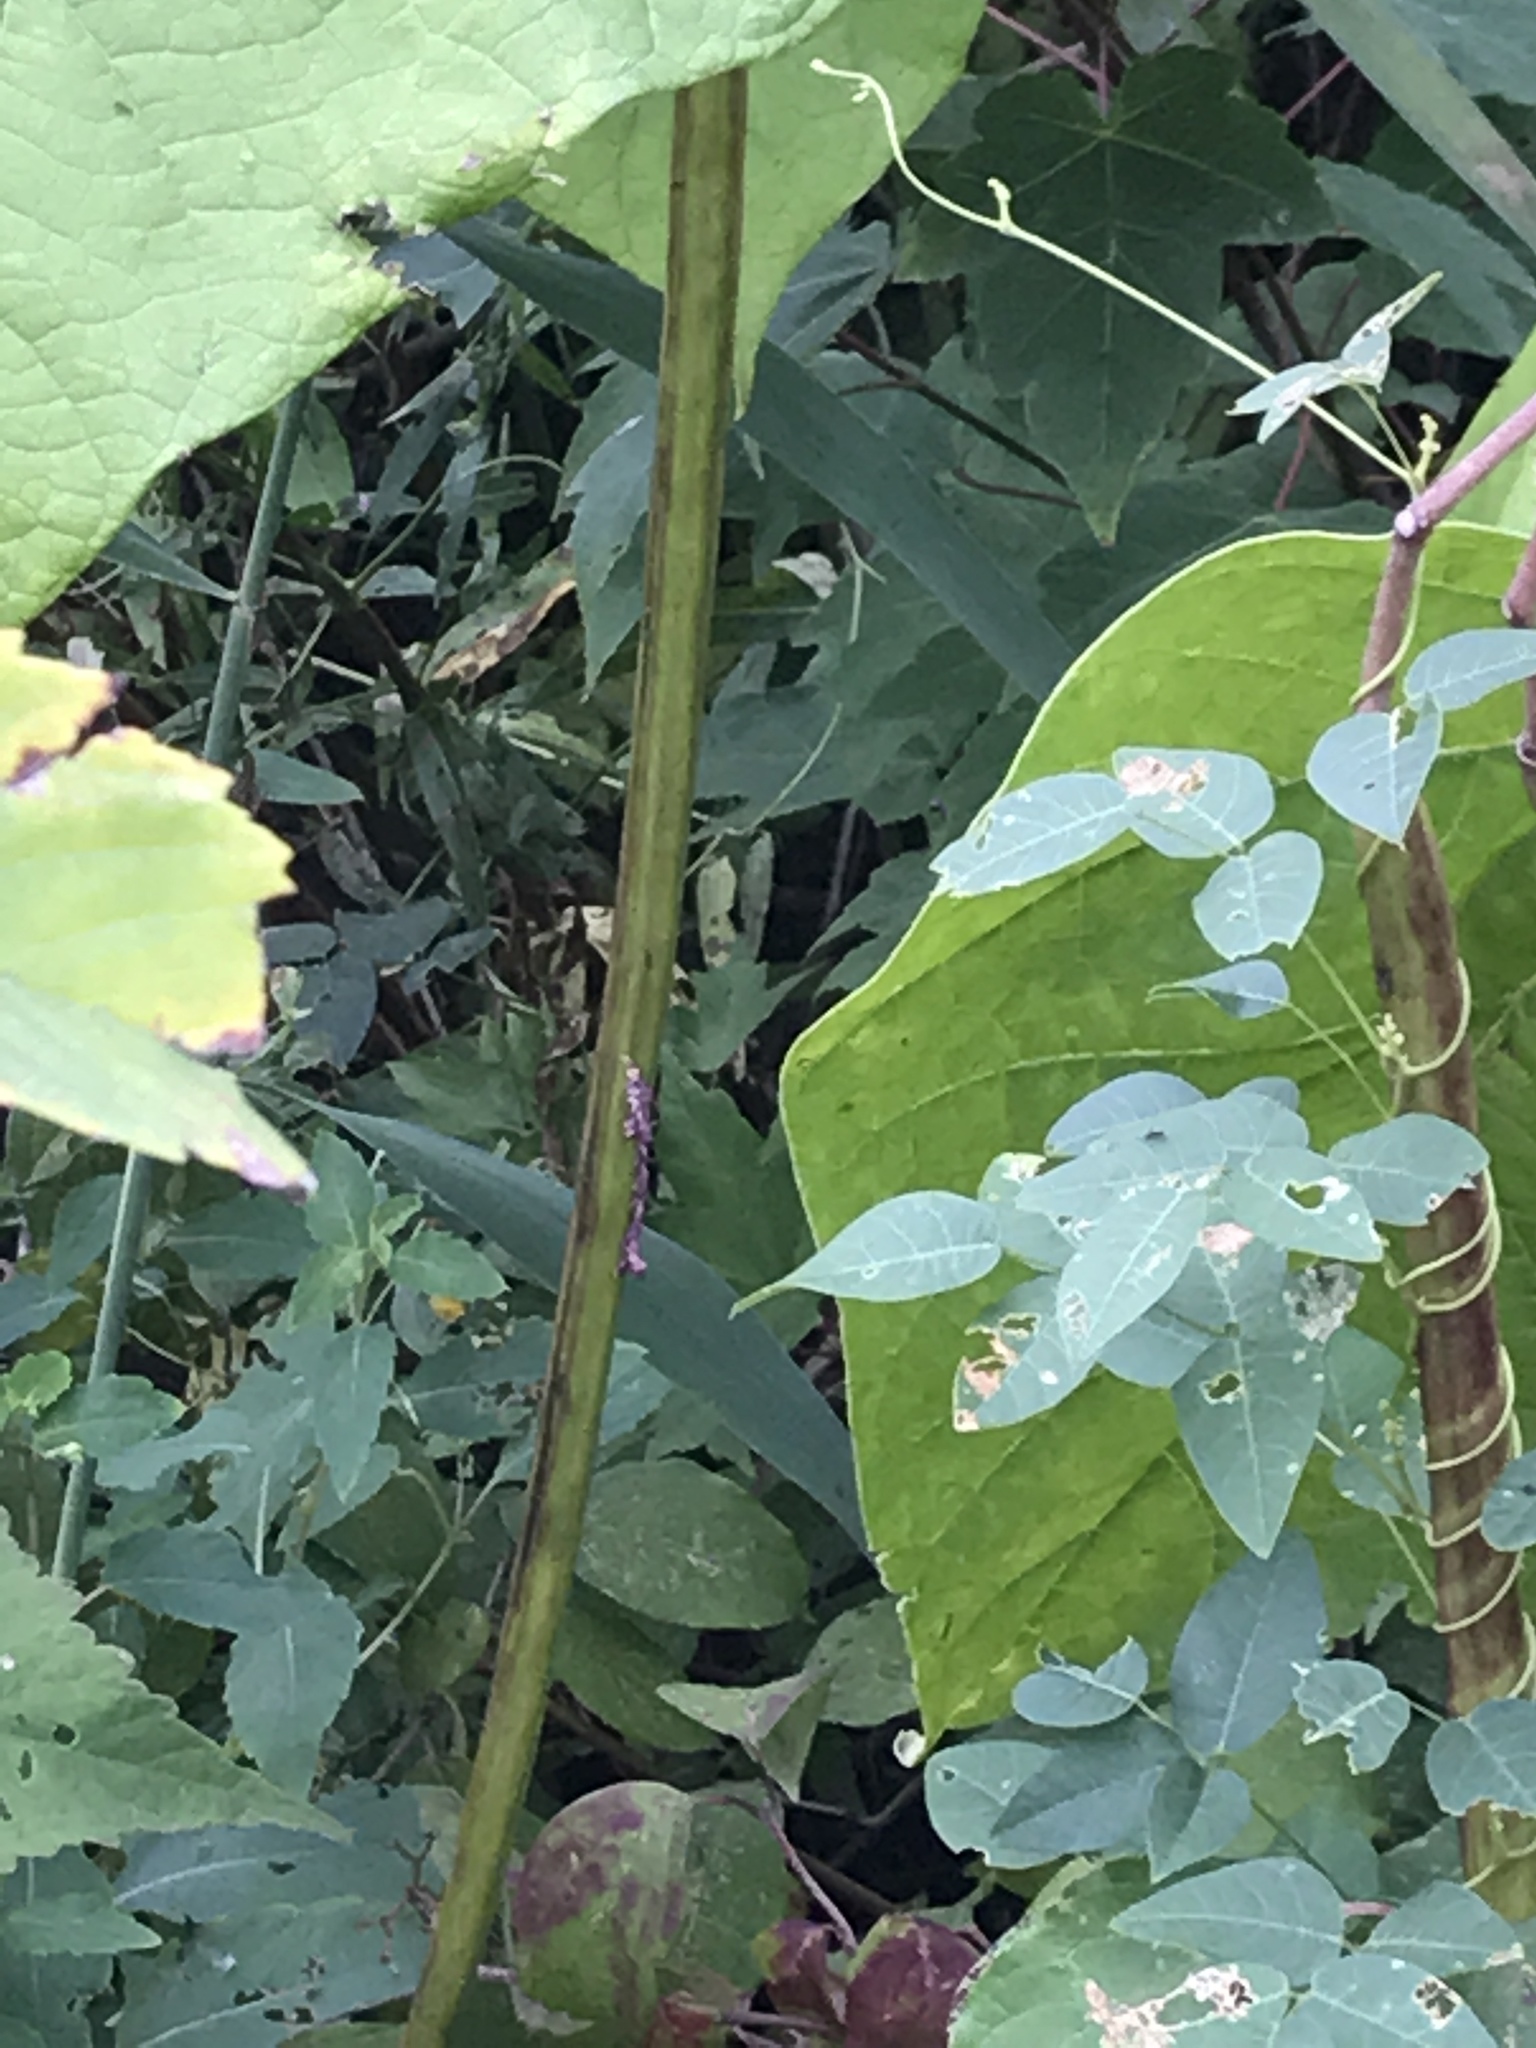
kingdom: Plantae
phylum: Tracheophyta
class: Magnoliopsida
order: Lamiales
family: Bignoniaceae
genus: Catalpa
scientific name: Catalpa speciosa
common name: Northern catalpa
